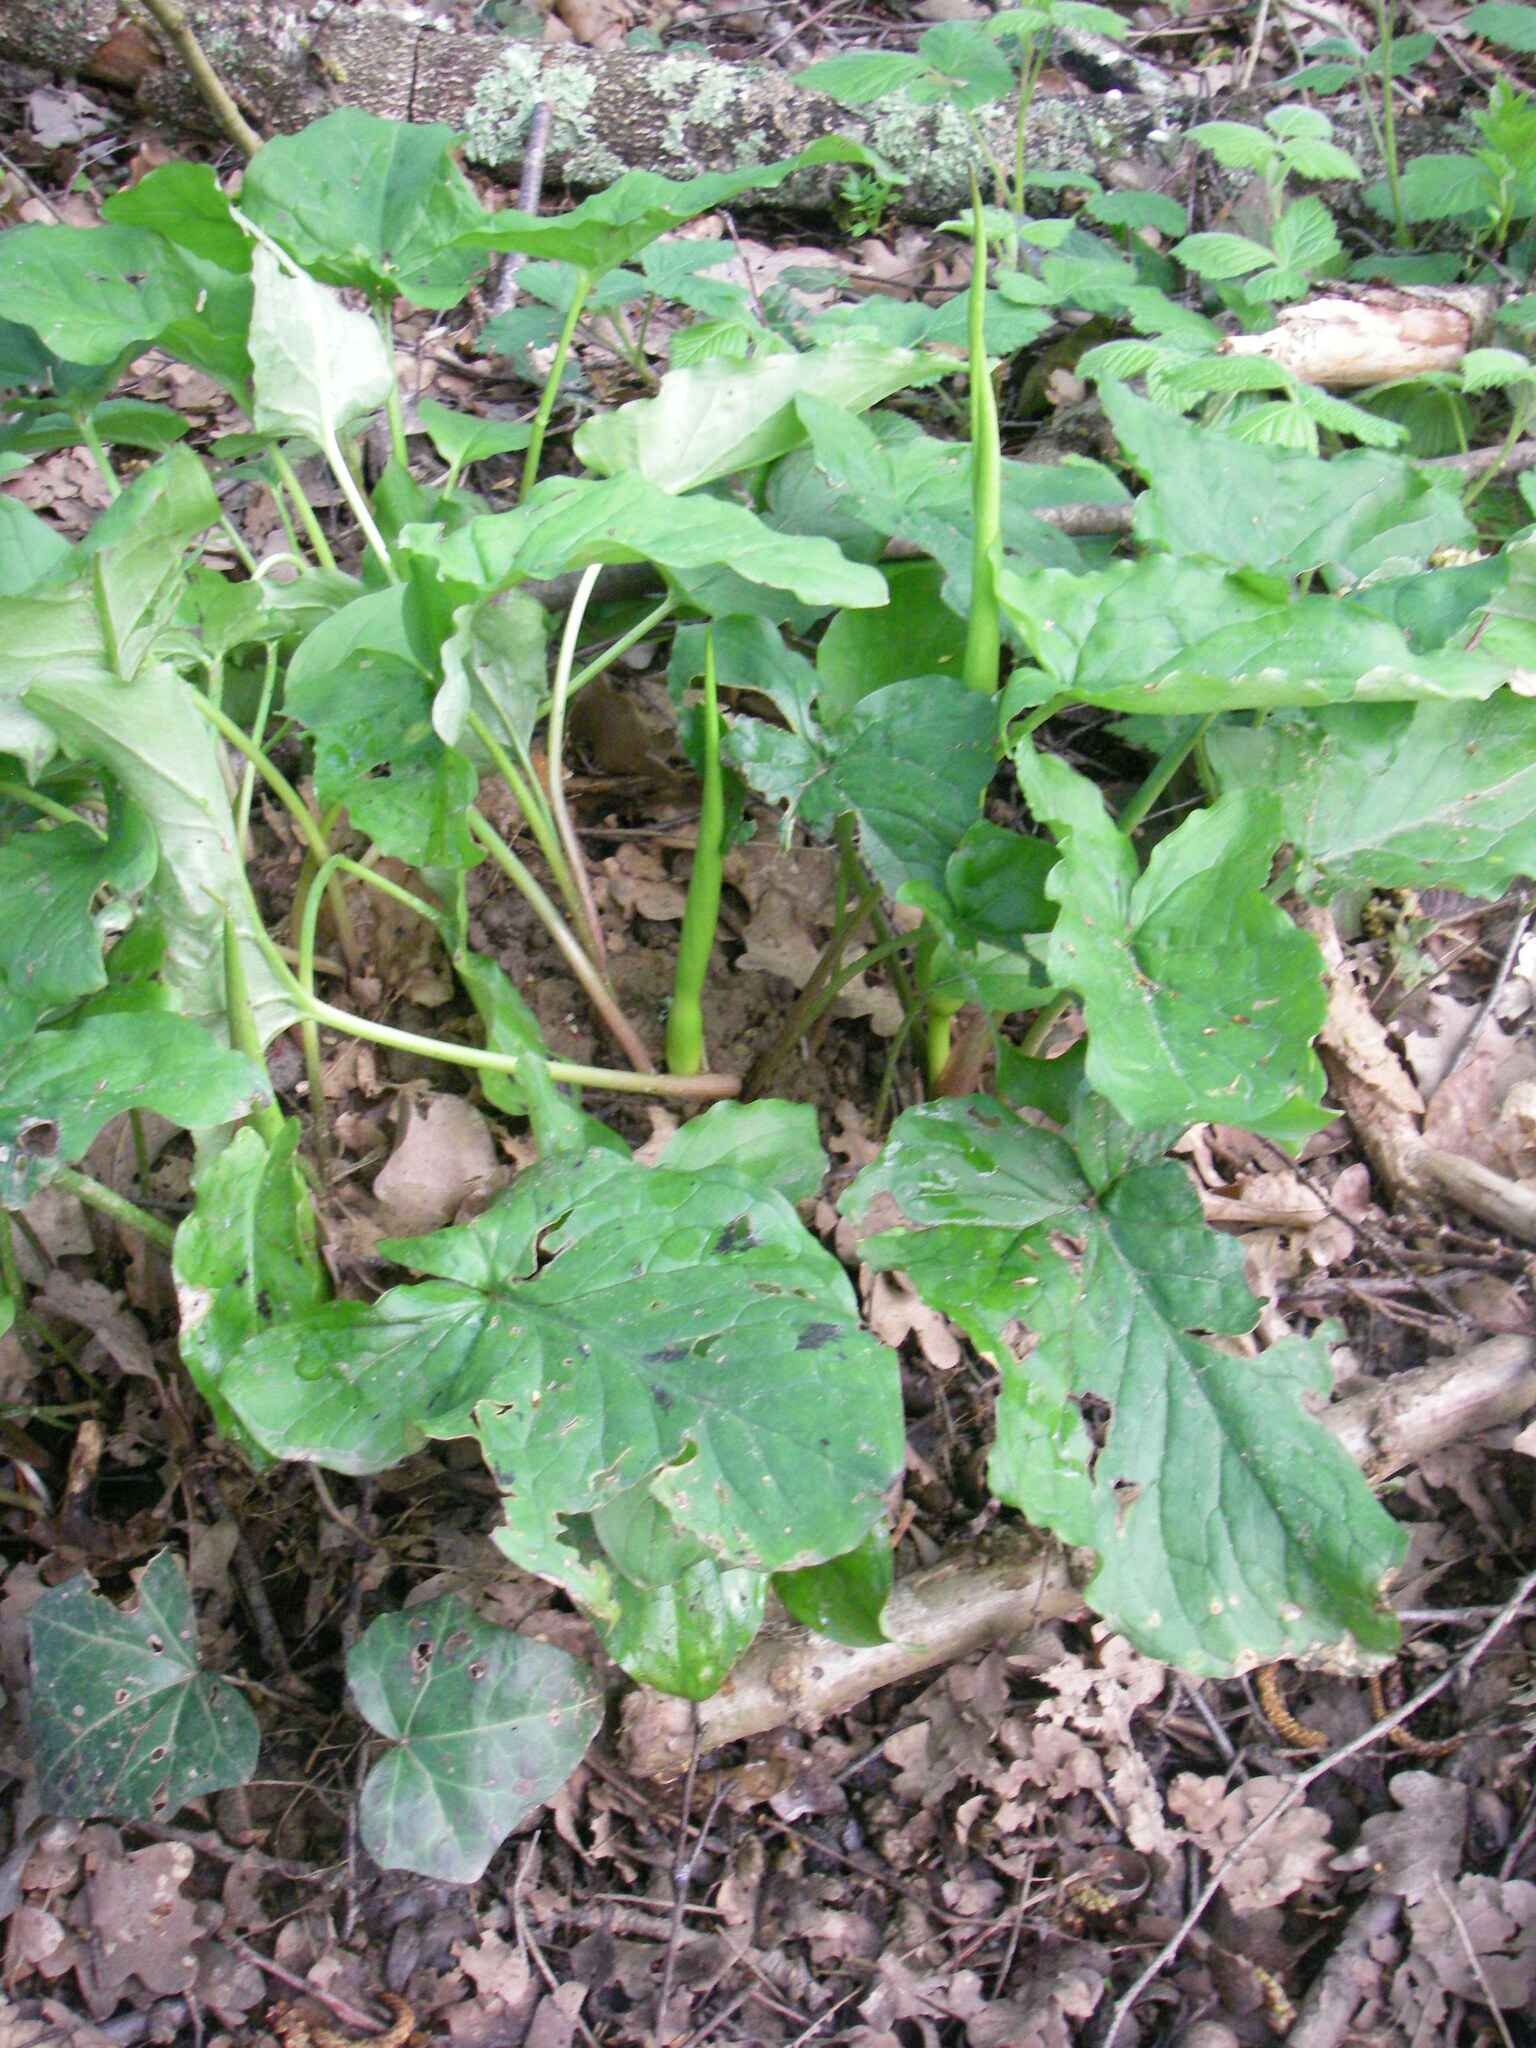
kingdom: Plantae
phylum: Tracheophyta
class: Liliopsida
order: Alismatales
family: Araceae
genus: Arum
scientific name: Arum maculatum
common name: Lords-and-ladies
